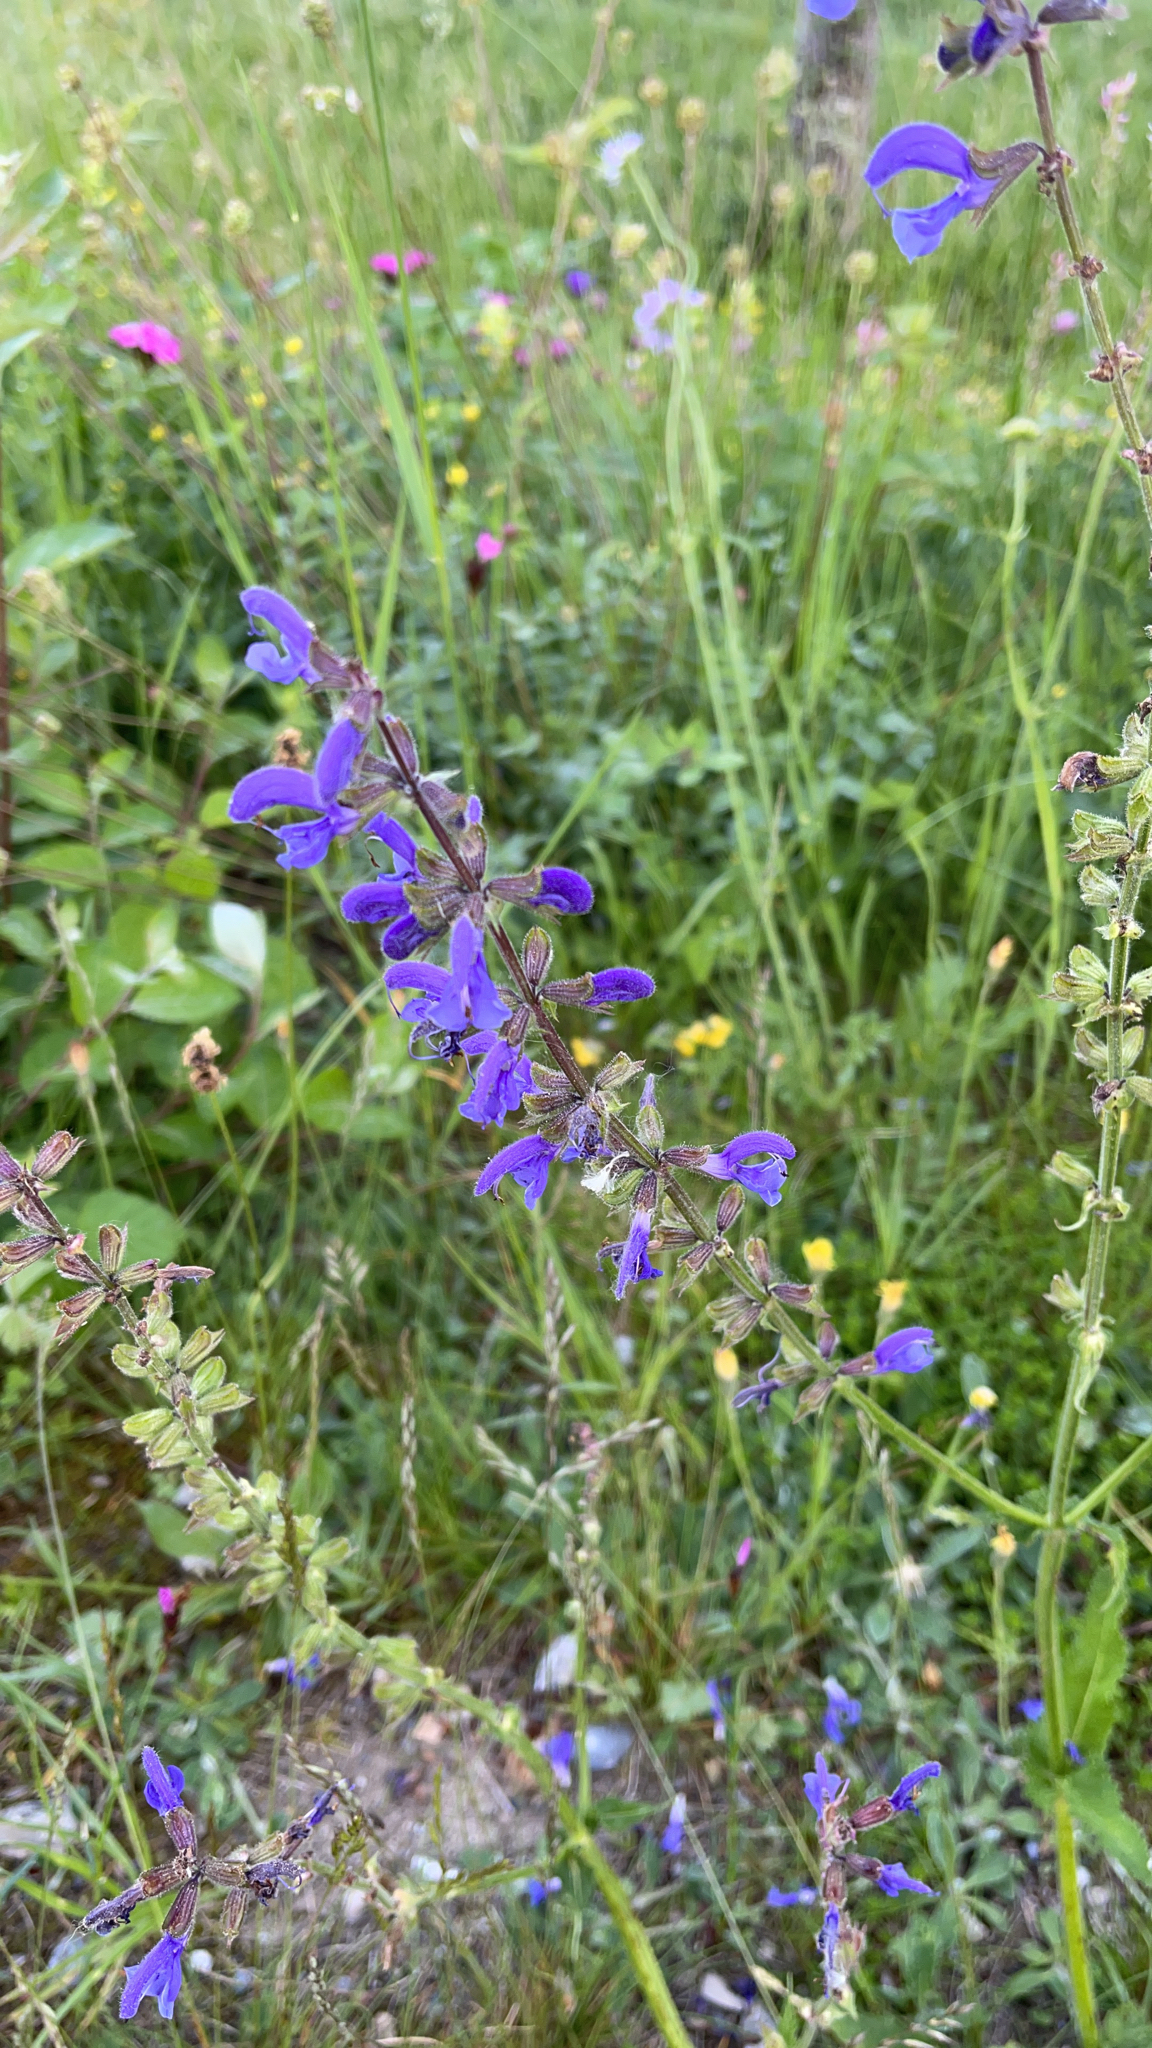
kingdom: Plantae
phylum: Tracheophyta
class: Magnoliopsida
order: Lamiales
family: Lamiaceae
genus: Salvia
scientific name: Salvia pratensis
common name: Meadow sage
